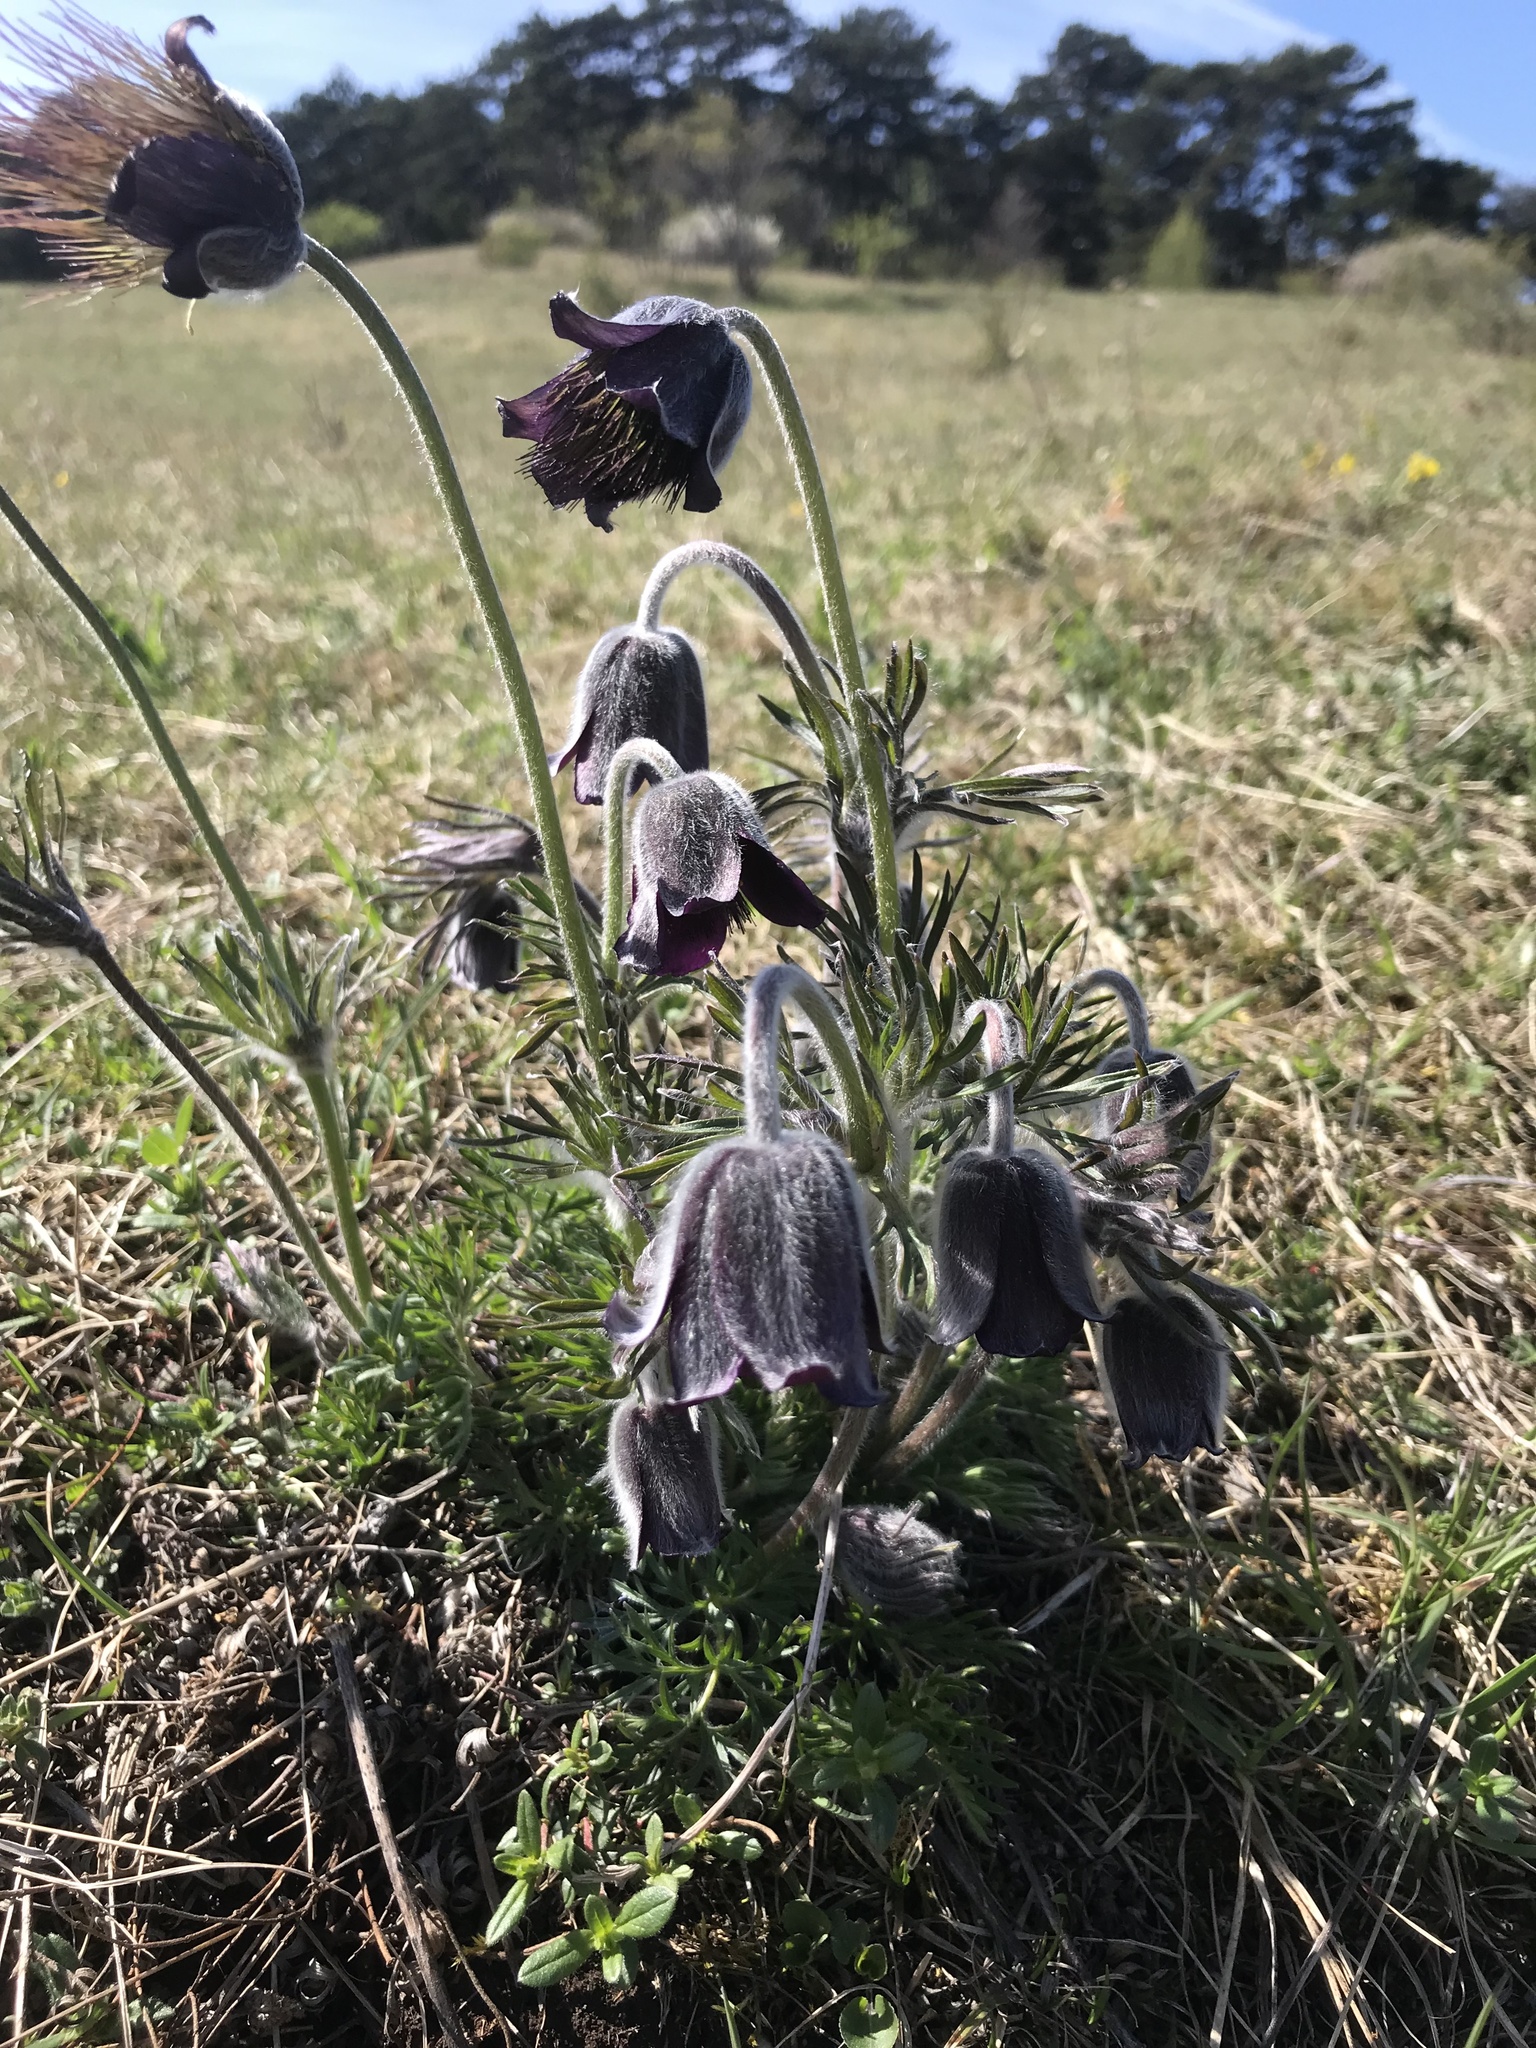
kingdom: Plantae
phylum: Tracheophyta
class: Magnoliopsida
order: Ranunculales
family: Ranunculaceae
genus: Pulsatilla
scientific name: Pulsatilla pratensis
